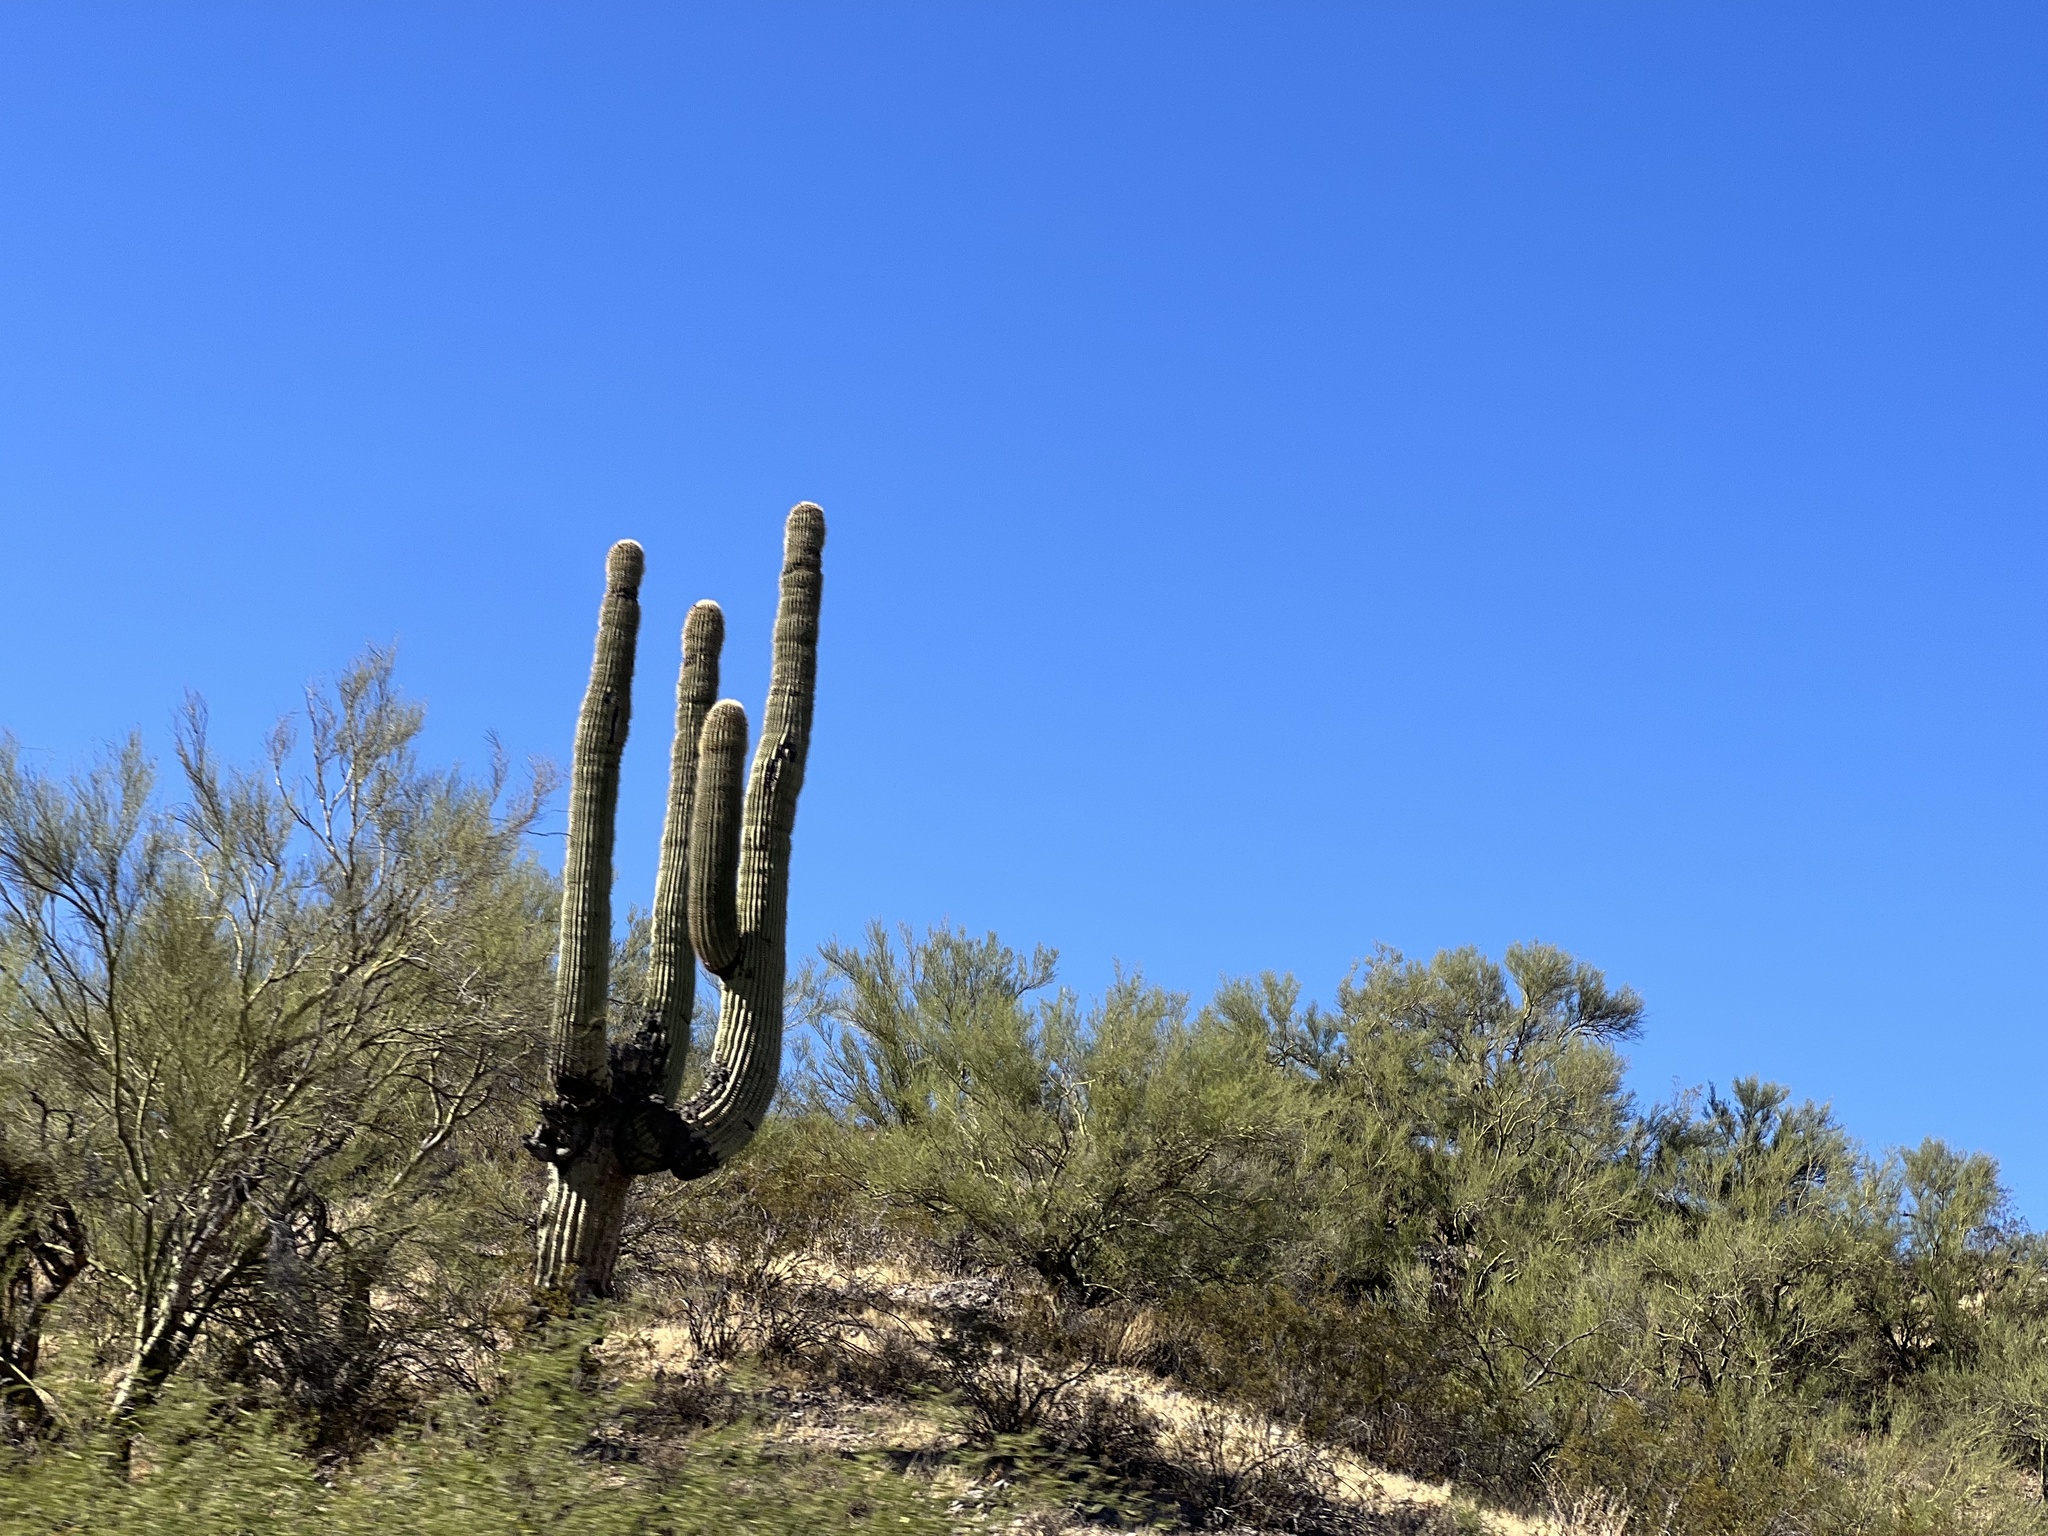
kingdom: Plantae
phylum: Tracheophyta
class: Magnoliopsida
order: Caryophyllales
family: Cactaceae
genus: Carnegiea
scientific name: Carnegiea gigantea
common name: Saguaro
